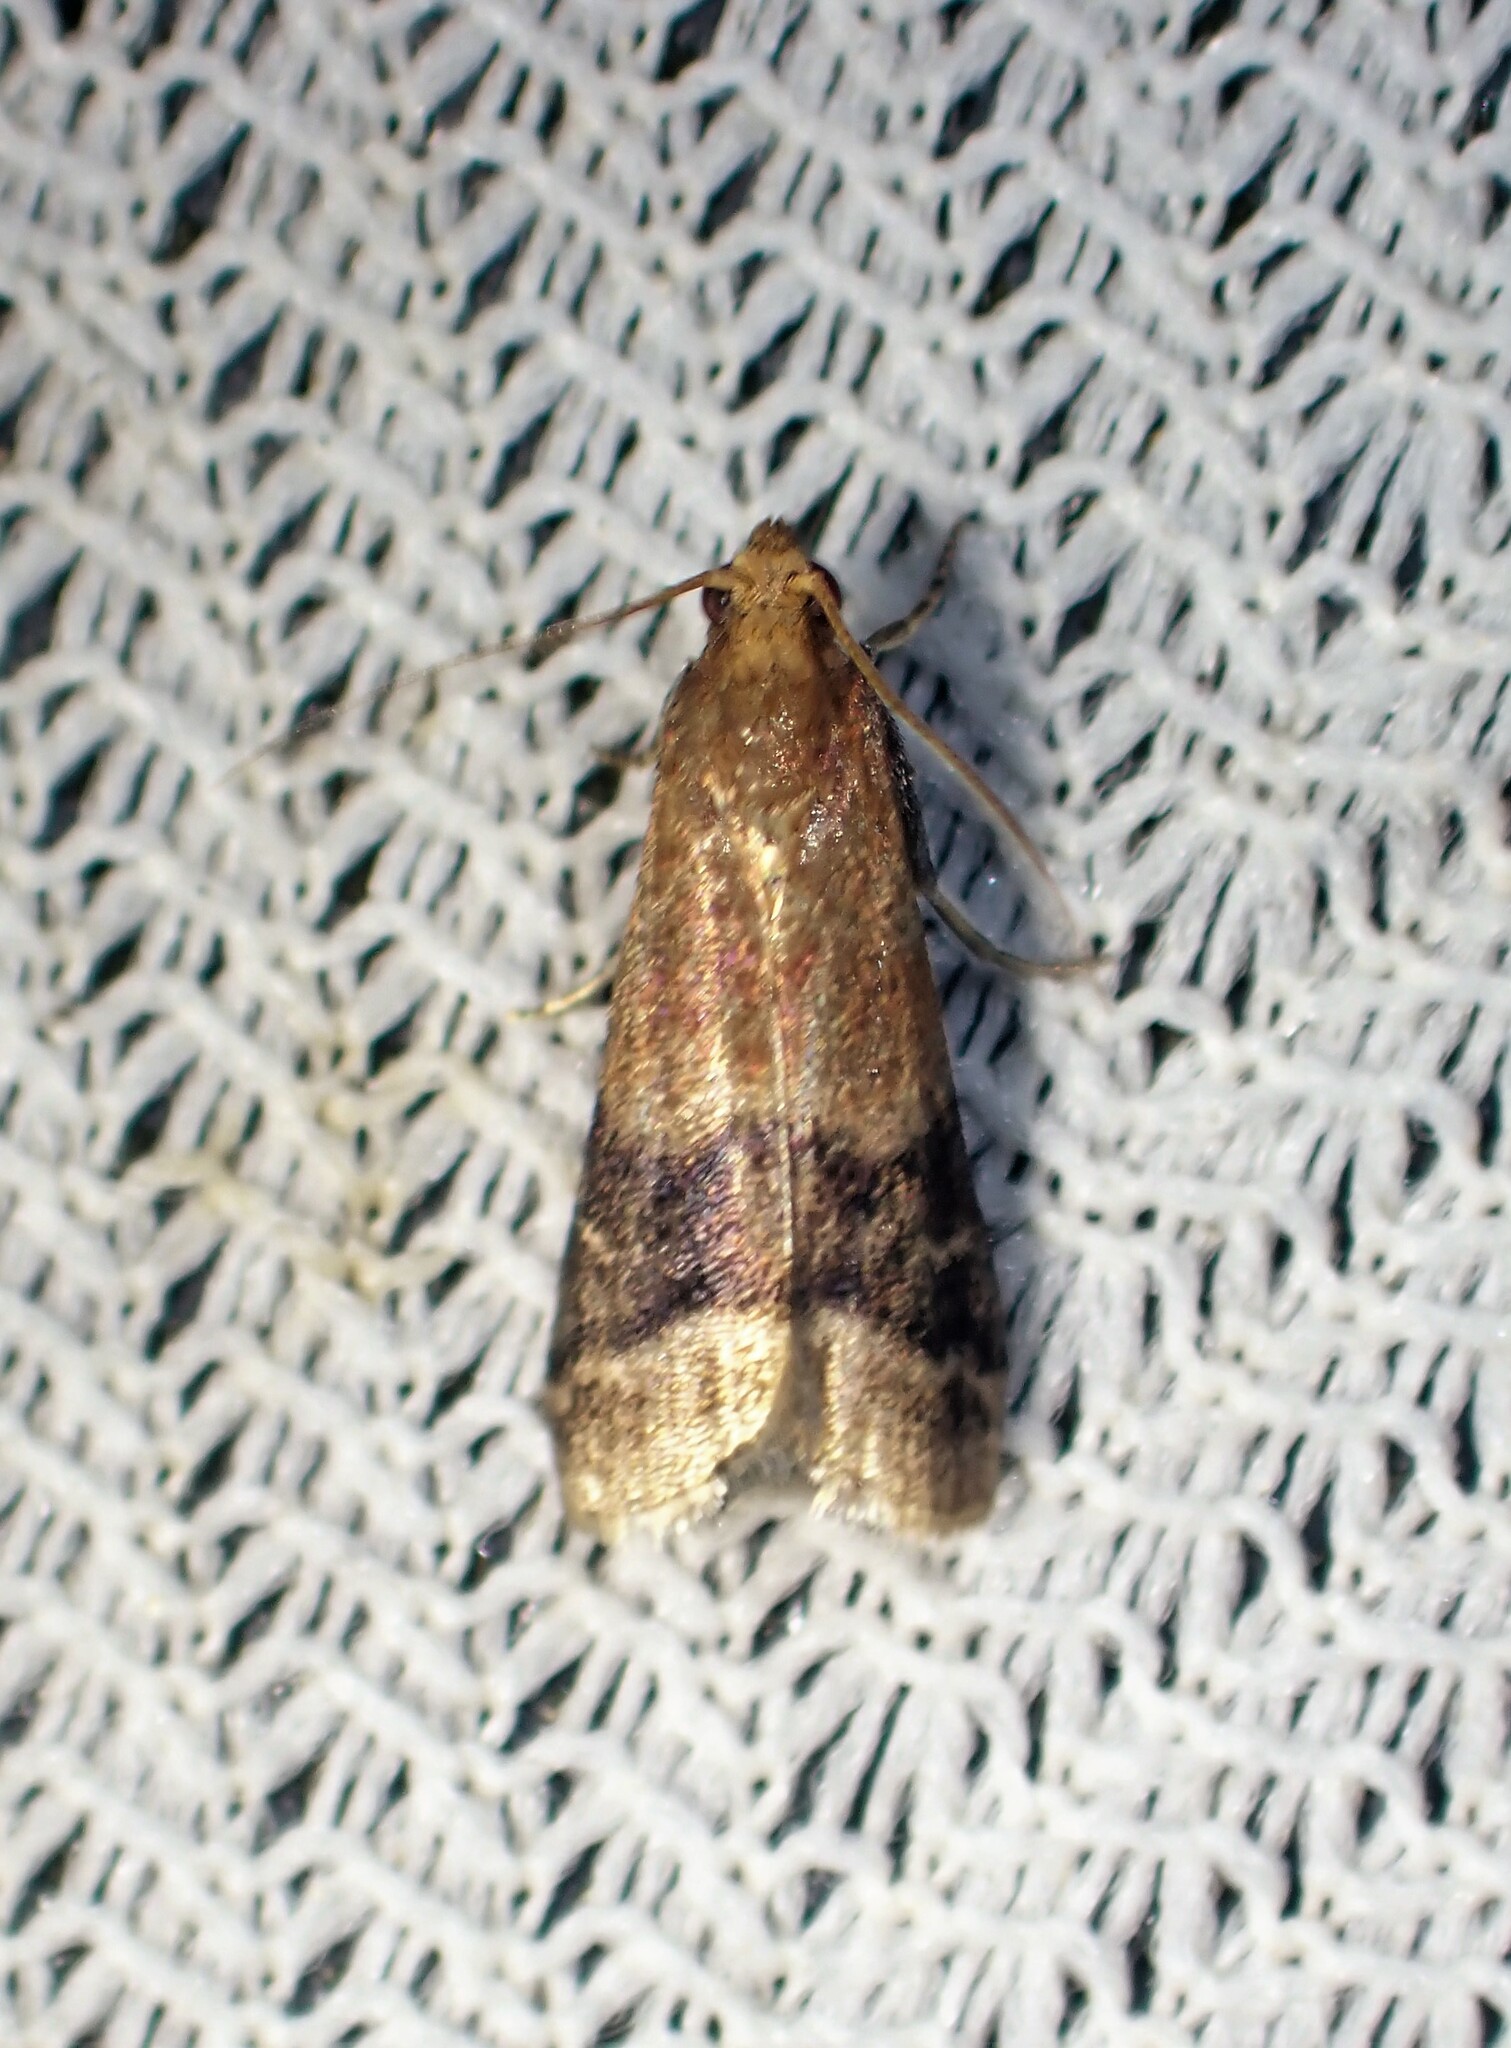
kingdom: Animalia
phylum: Arthropoda
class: Insecta
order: Lepidoptera
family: Pyralidae
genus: Eulogia
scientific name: Eulogia ochrifrontella
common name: Broad-banded eulogia moth
